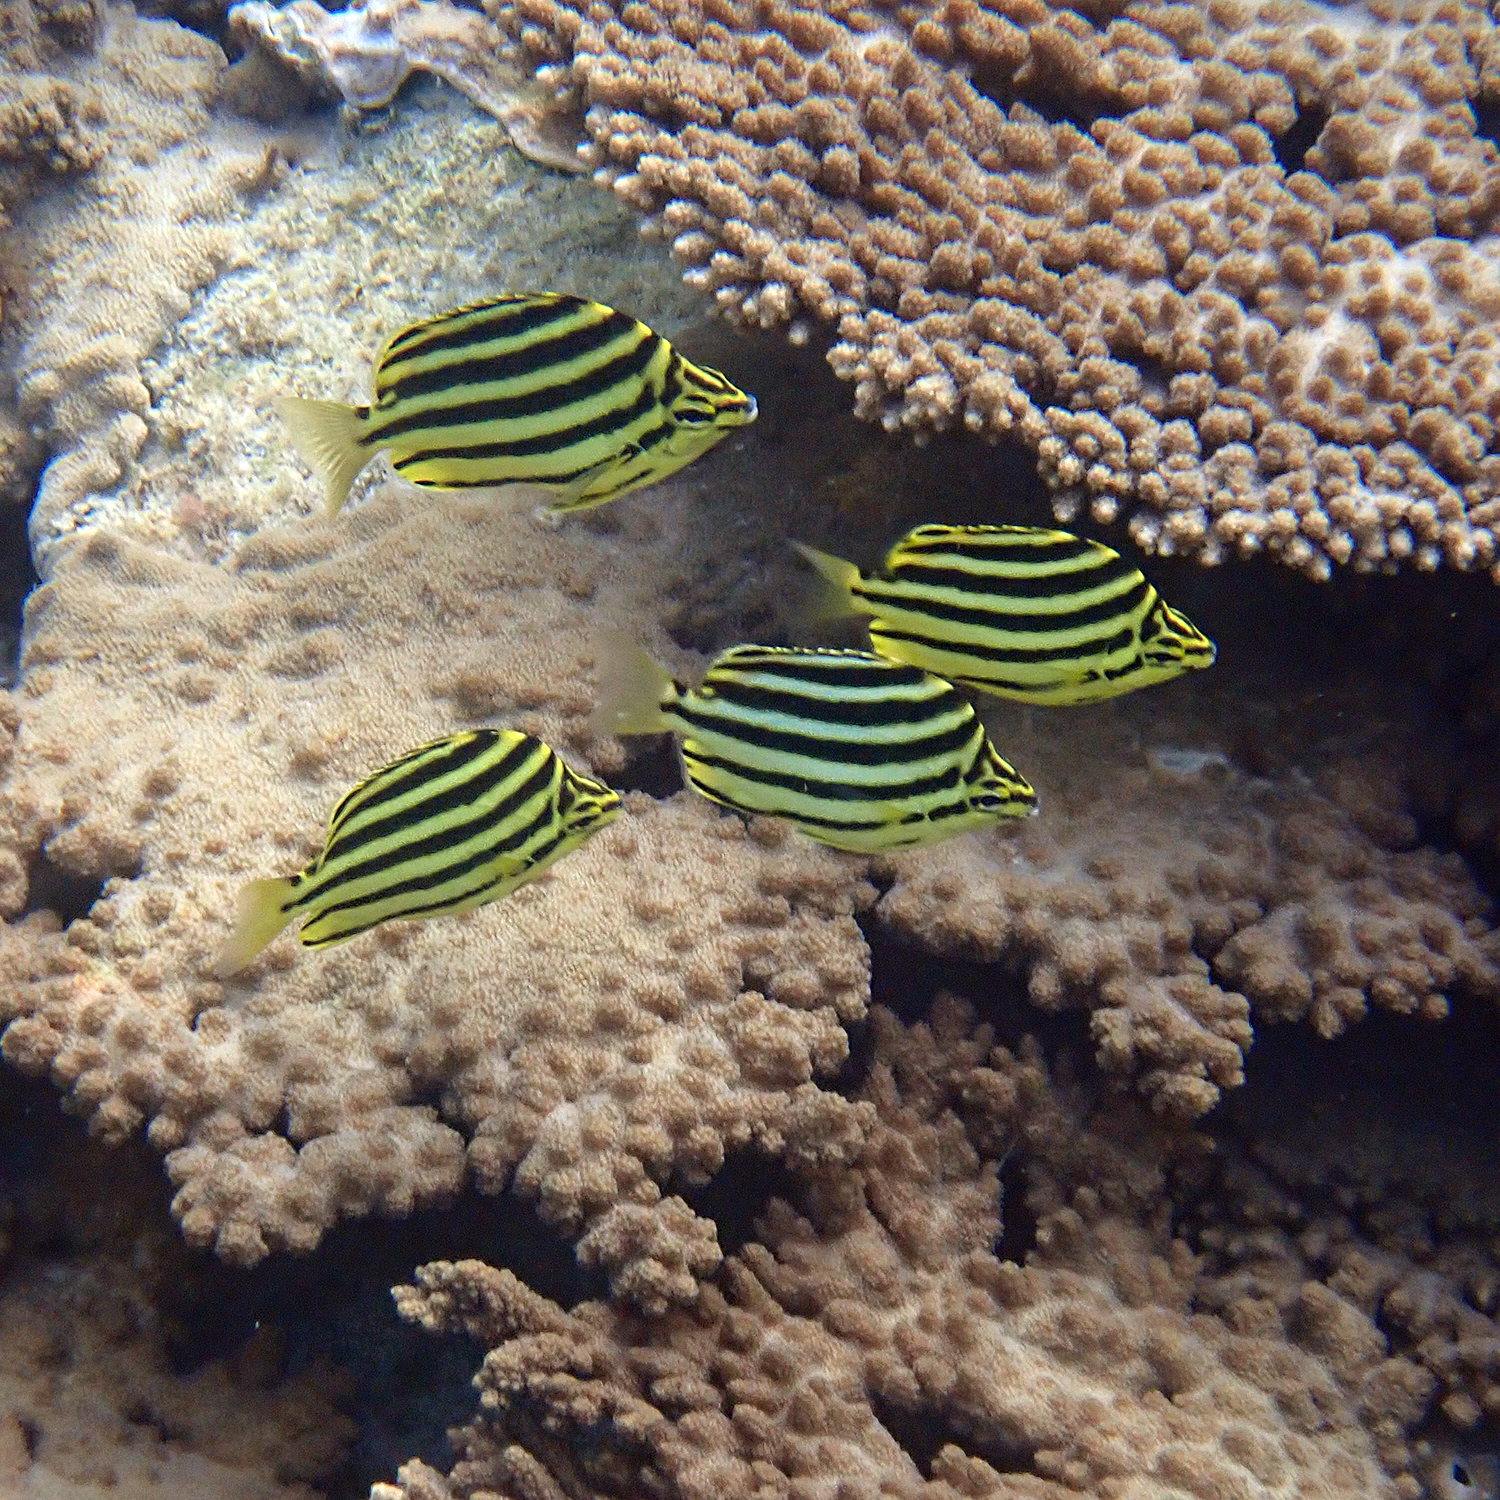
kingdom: Animalia
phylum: Chordata
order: Perciformes
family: Kyphosidae
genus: Microcanthus
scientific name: Microcanthus joyceae
